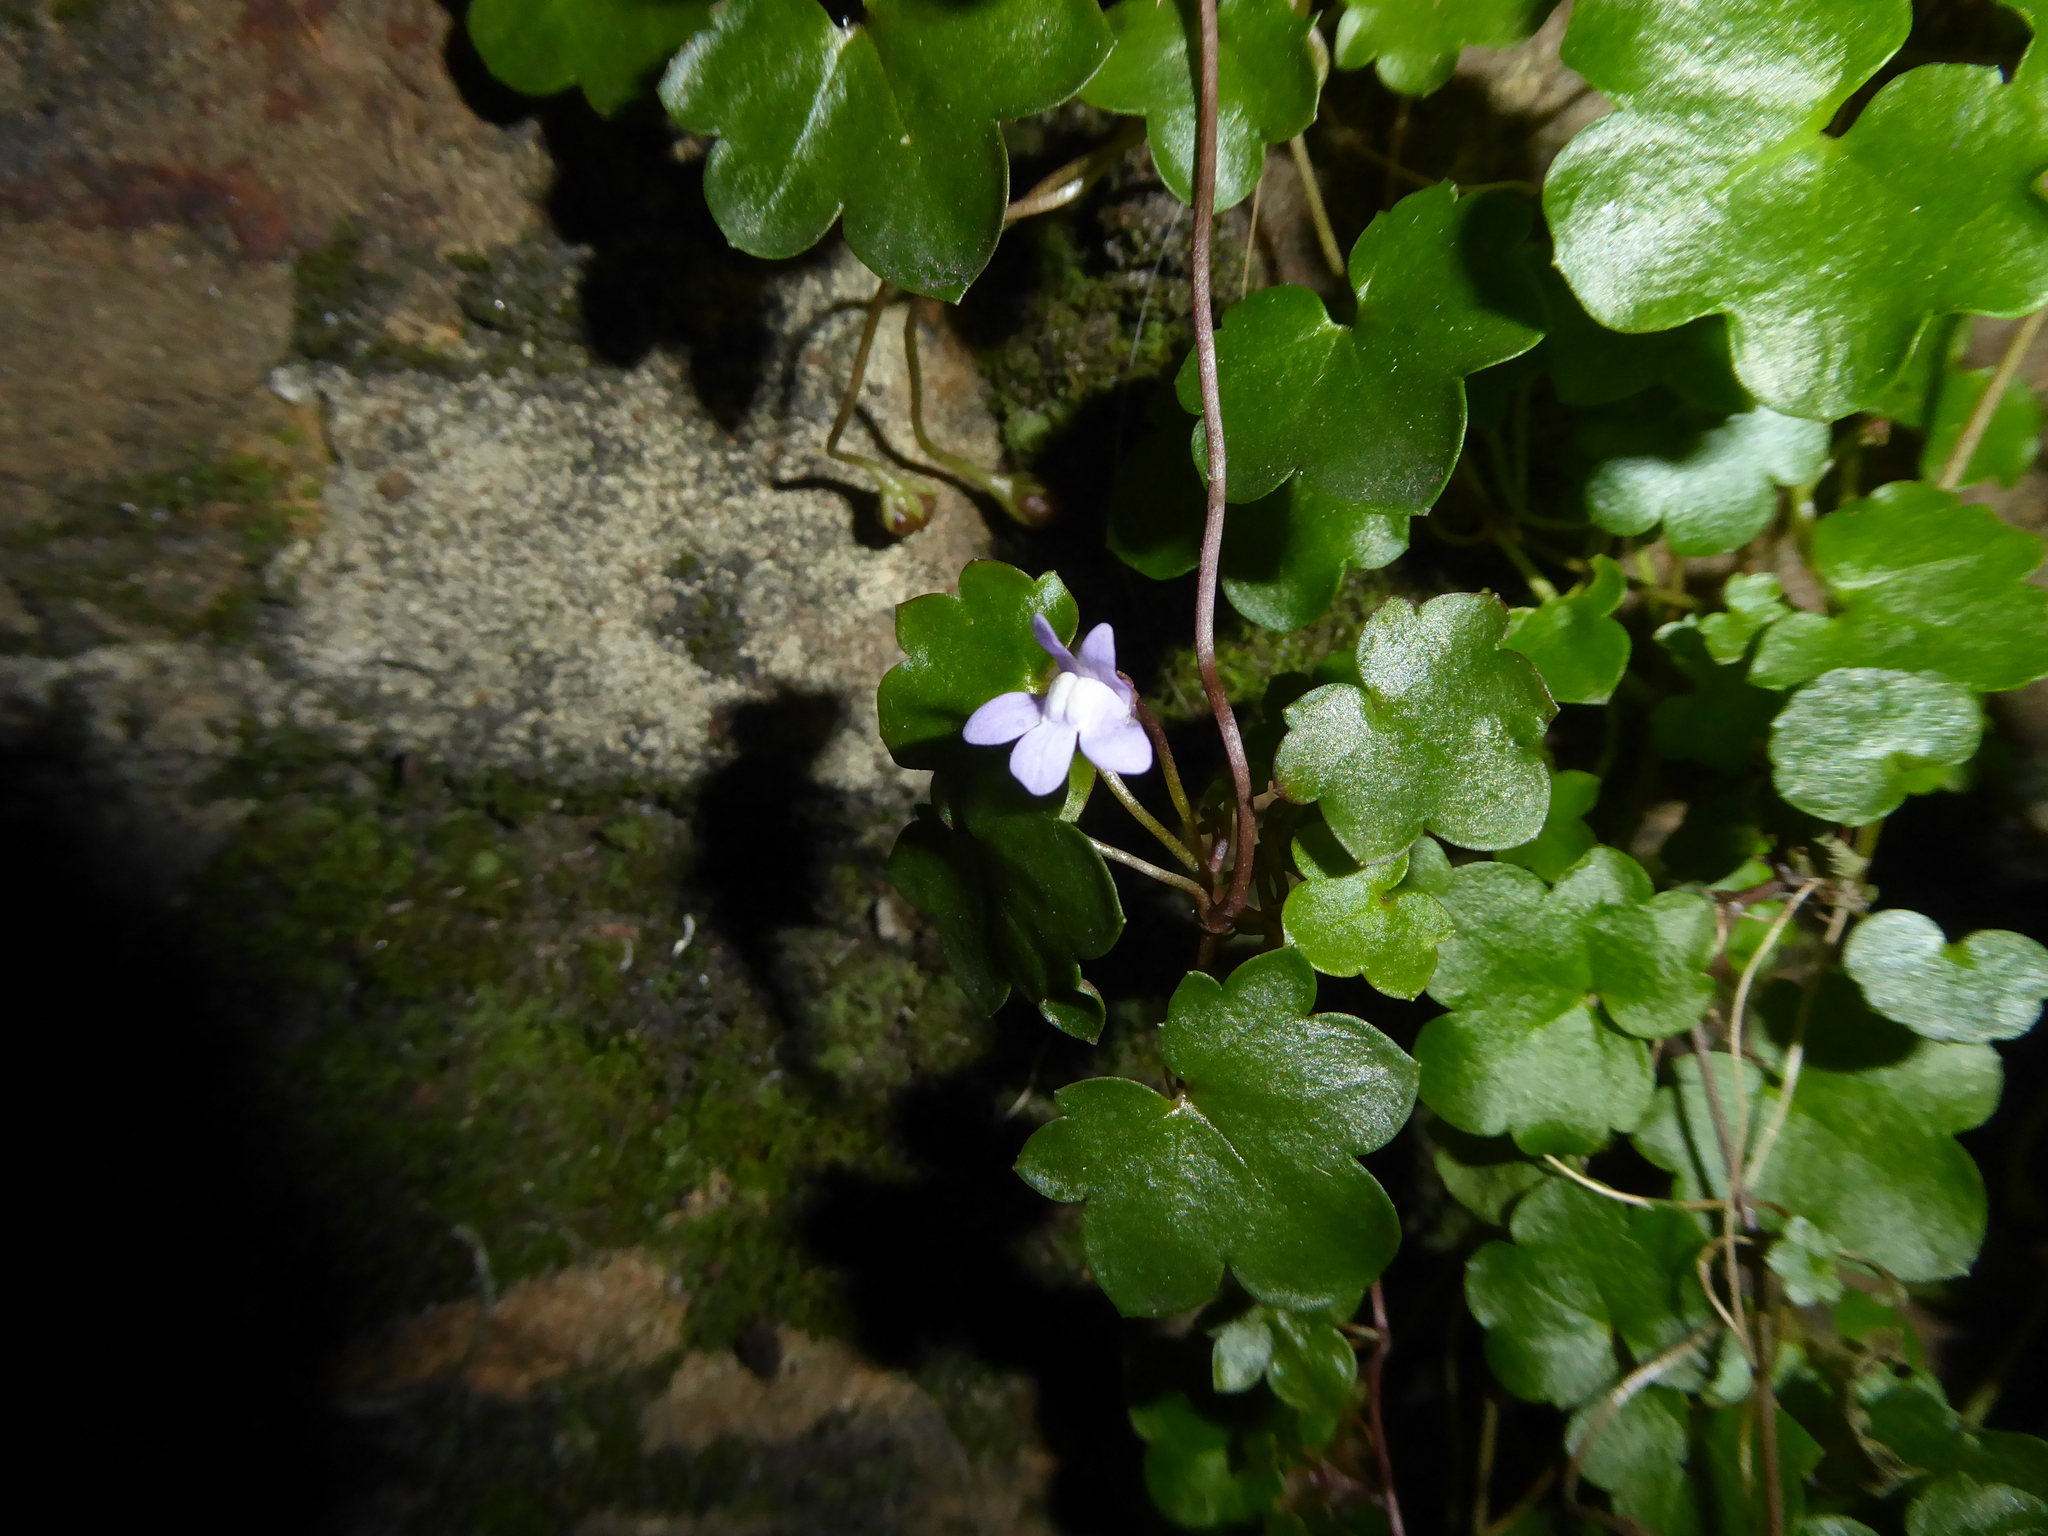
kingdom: Plantae
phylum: Tracheophyta
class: Magnoliopsida
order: Lamiales
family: Plantaginaceae
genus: Cymbalaria
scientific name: Cymbalaria muralis
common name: Ivy-leaved toadflax
